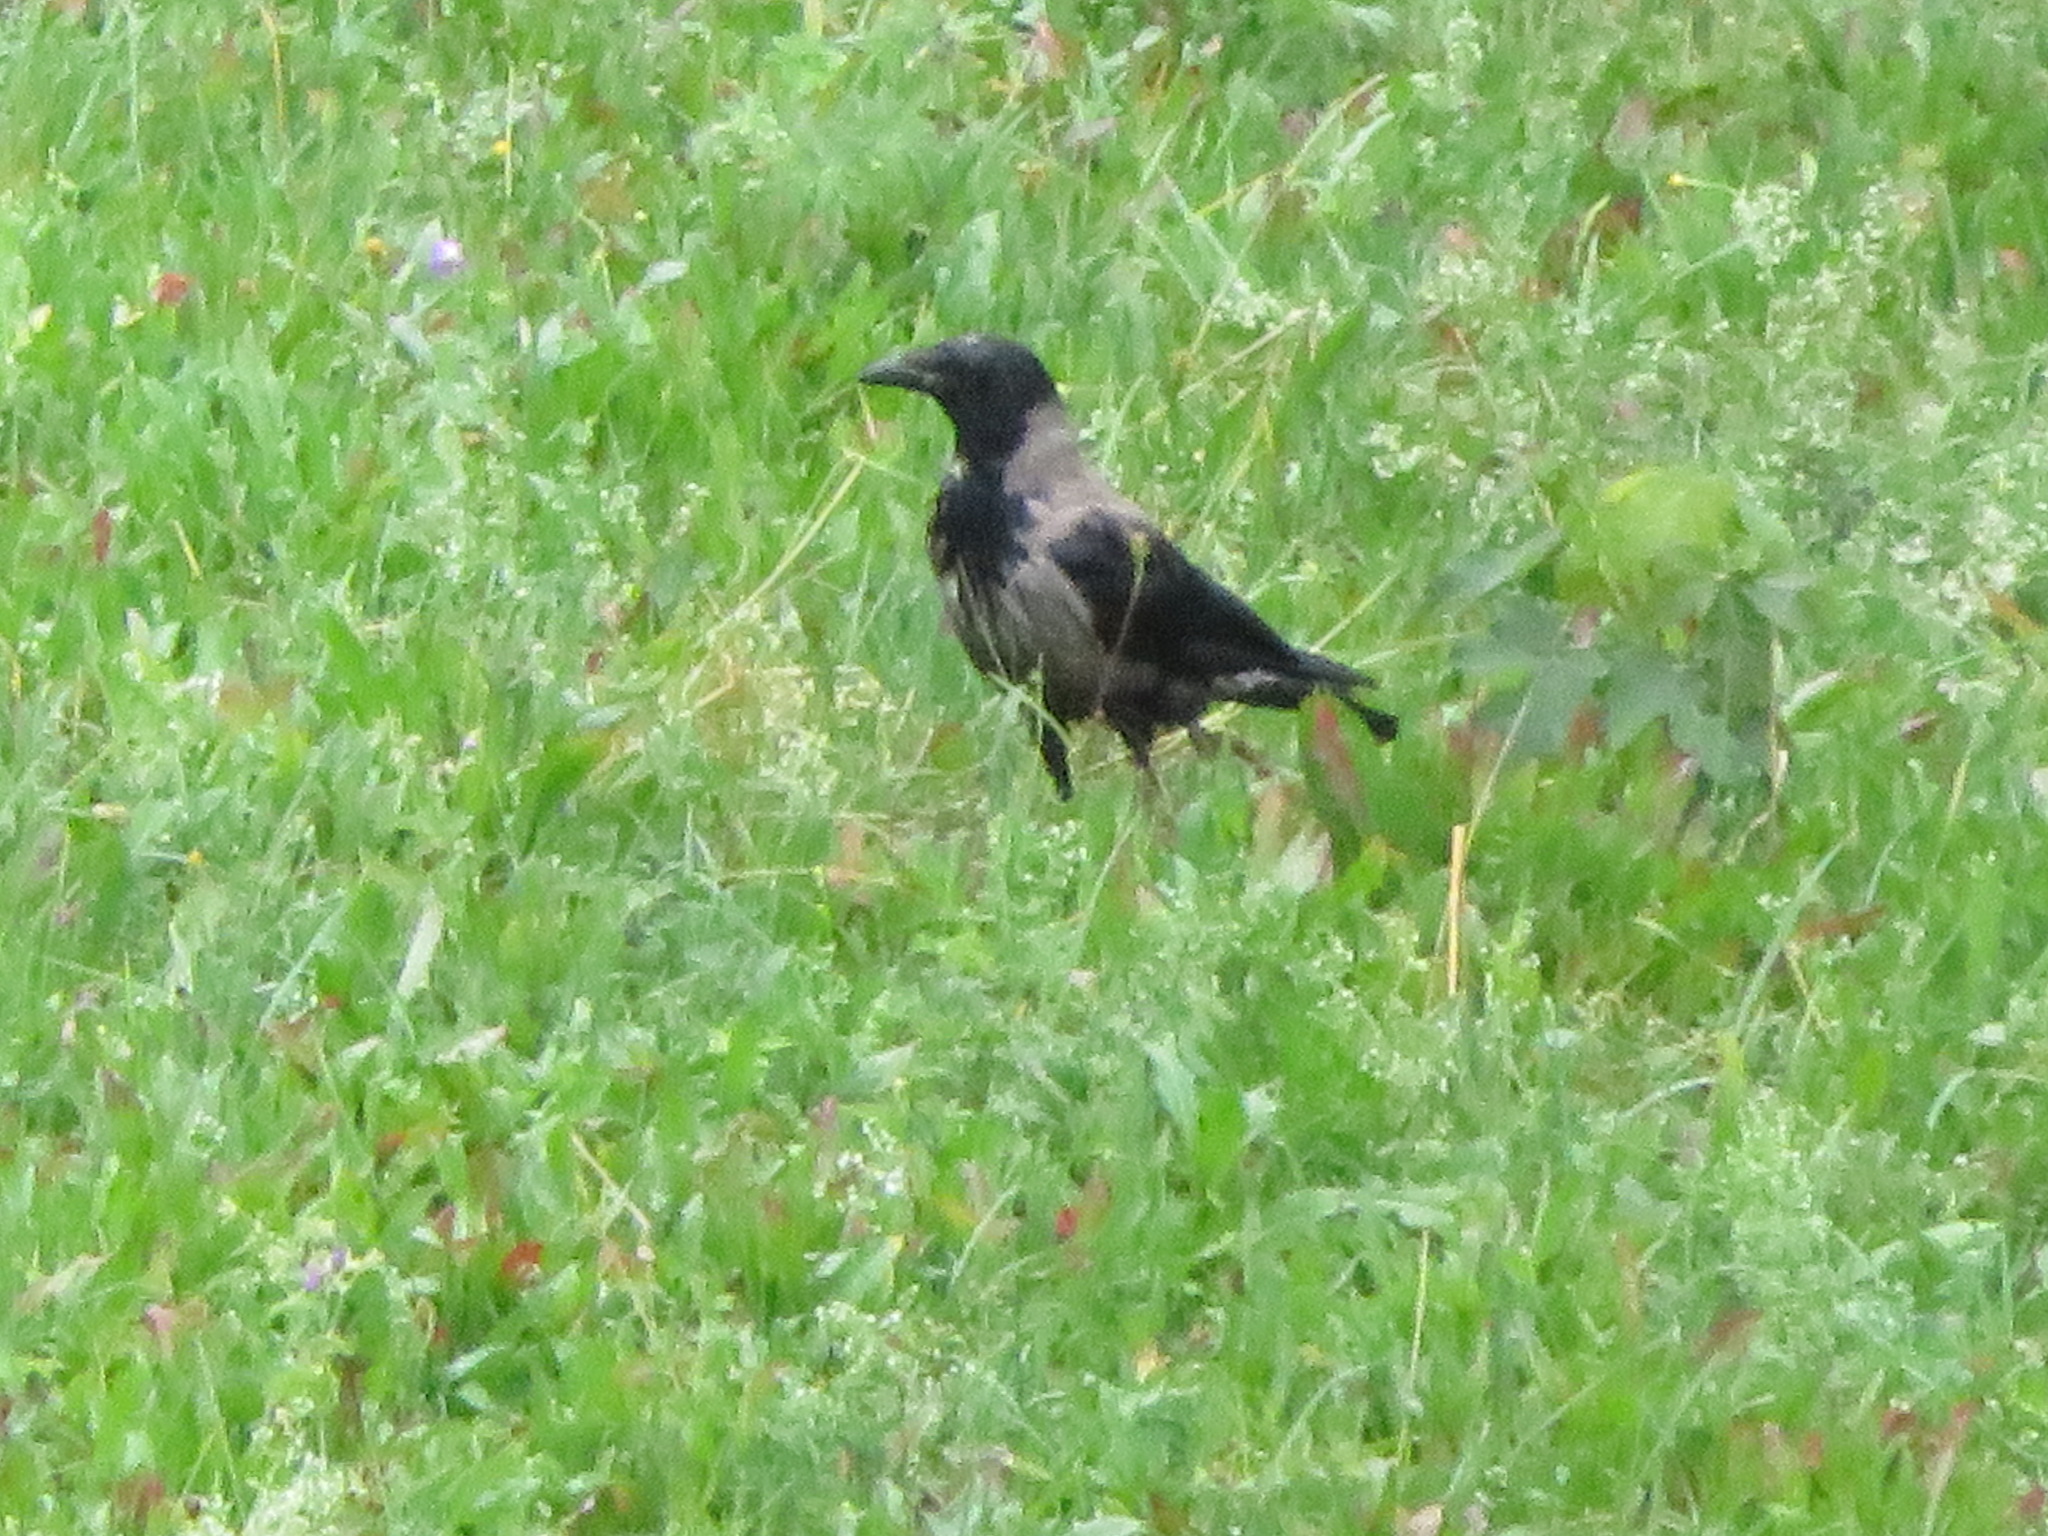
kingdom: Animalia
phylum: Chordata
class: Aves
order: Passeriformes
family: Corvidae
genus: Corvus
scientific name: Corvus cornix
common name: Hooded crow
